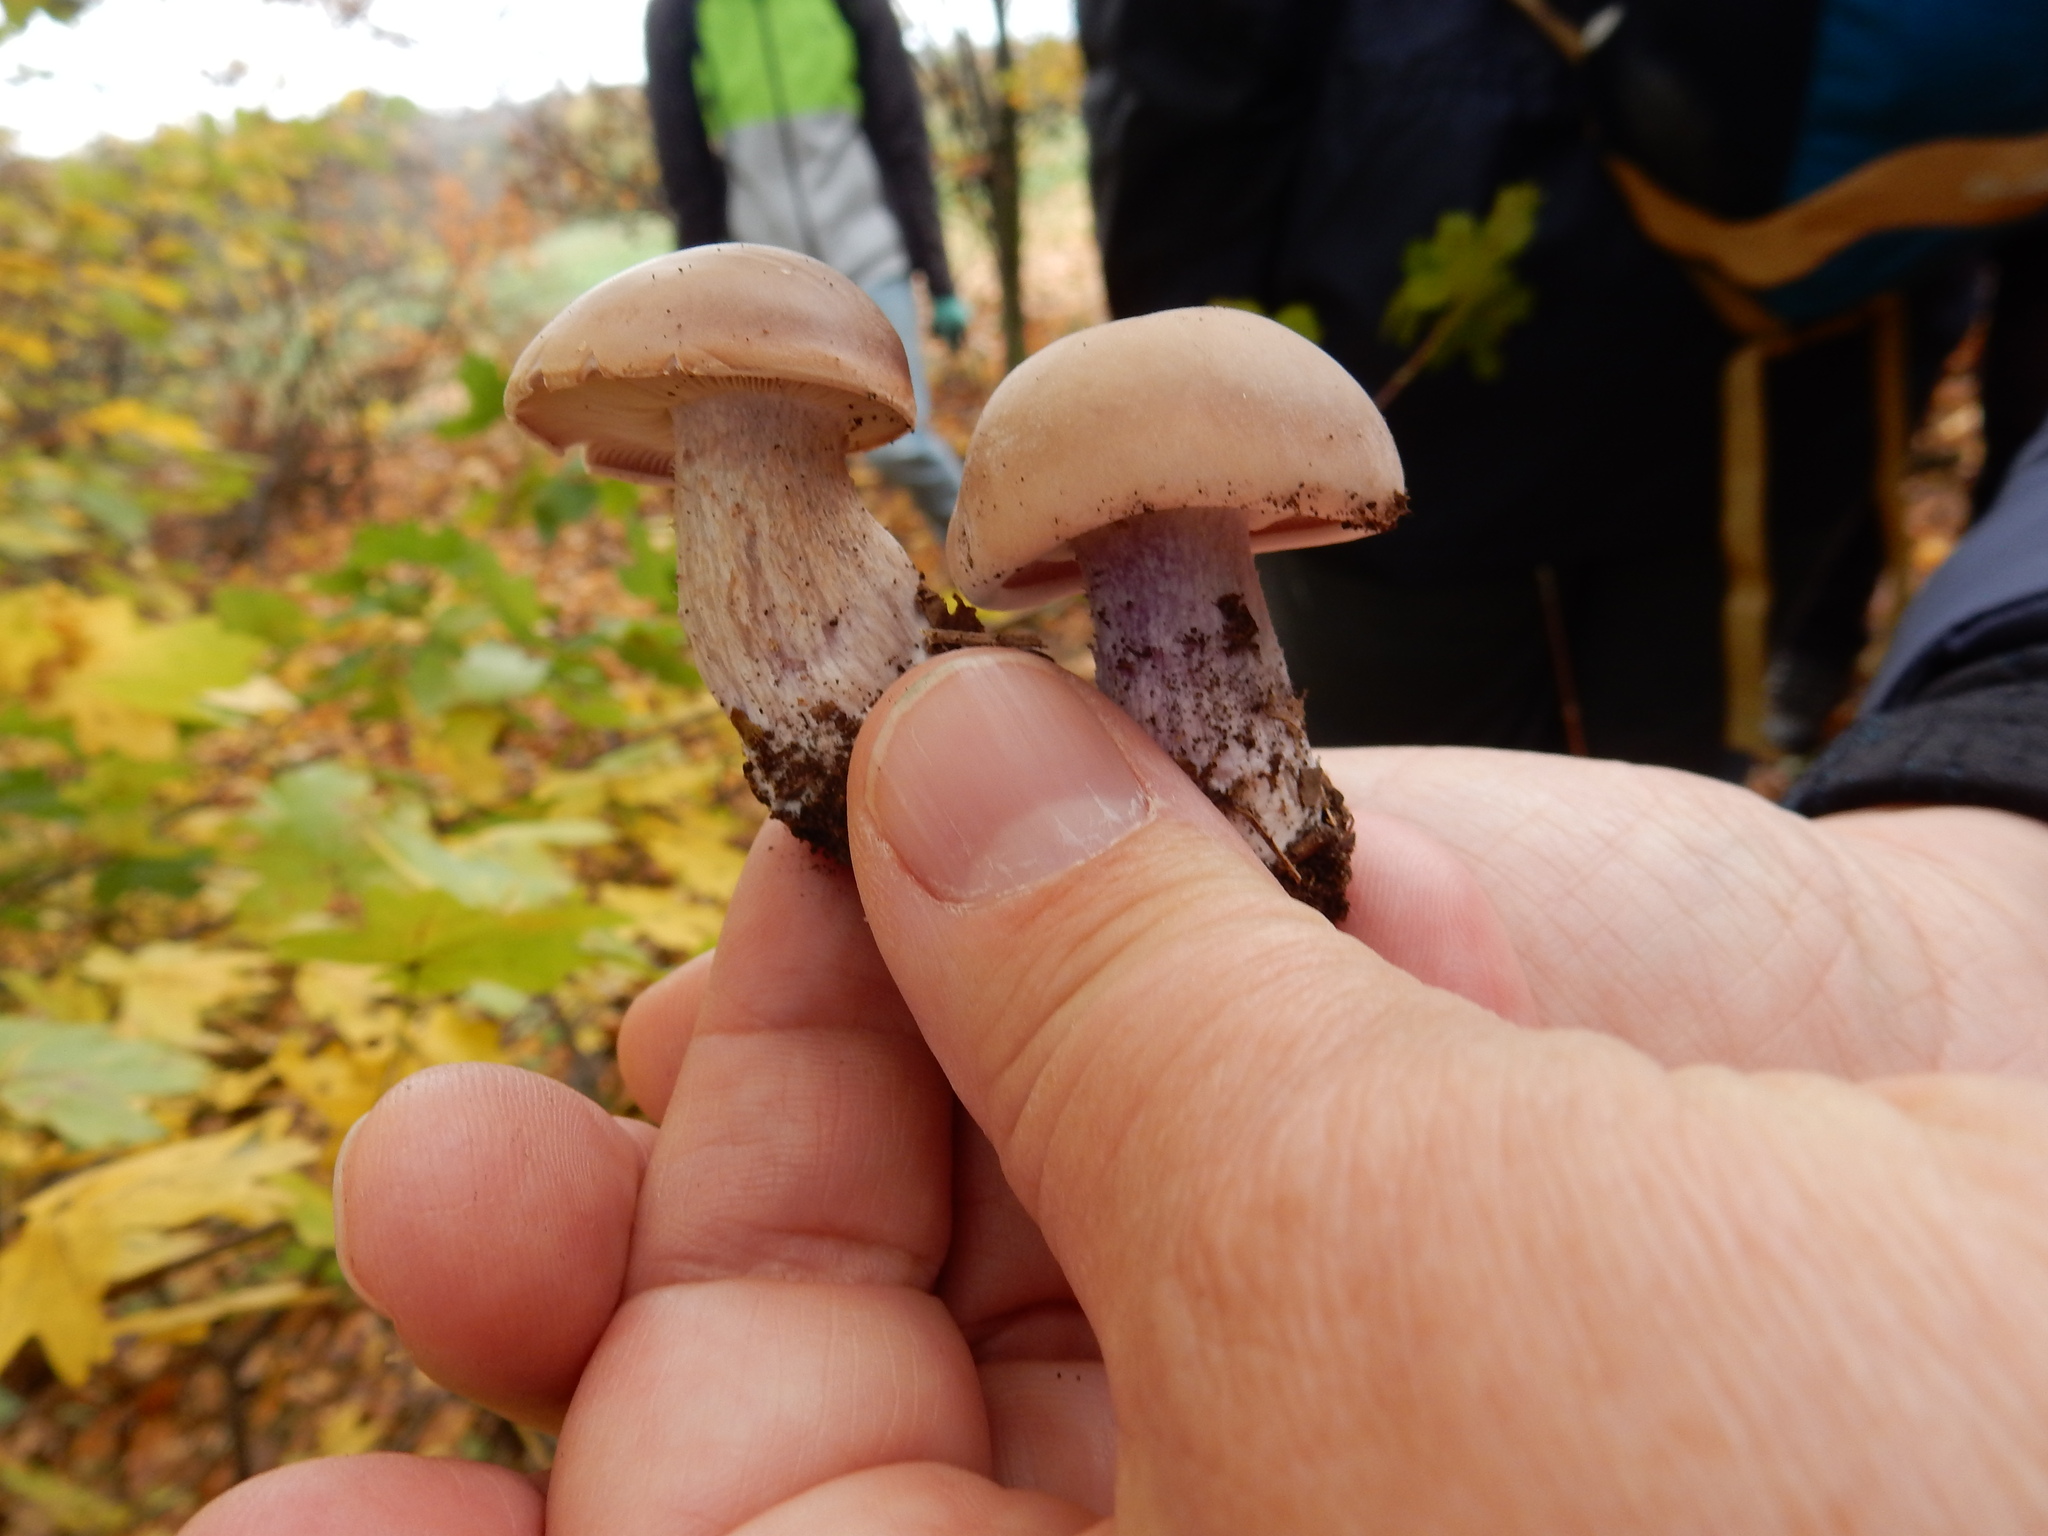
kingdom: Fungi
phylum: Basidiomycota
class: Agaricomycetes
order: Agaricales
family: Omphalotaceae
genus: Collybiopsis
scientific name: Collybiopsis peronata
